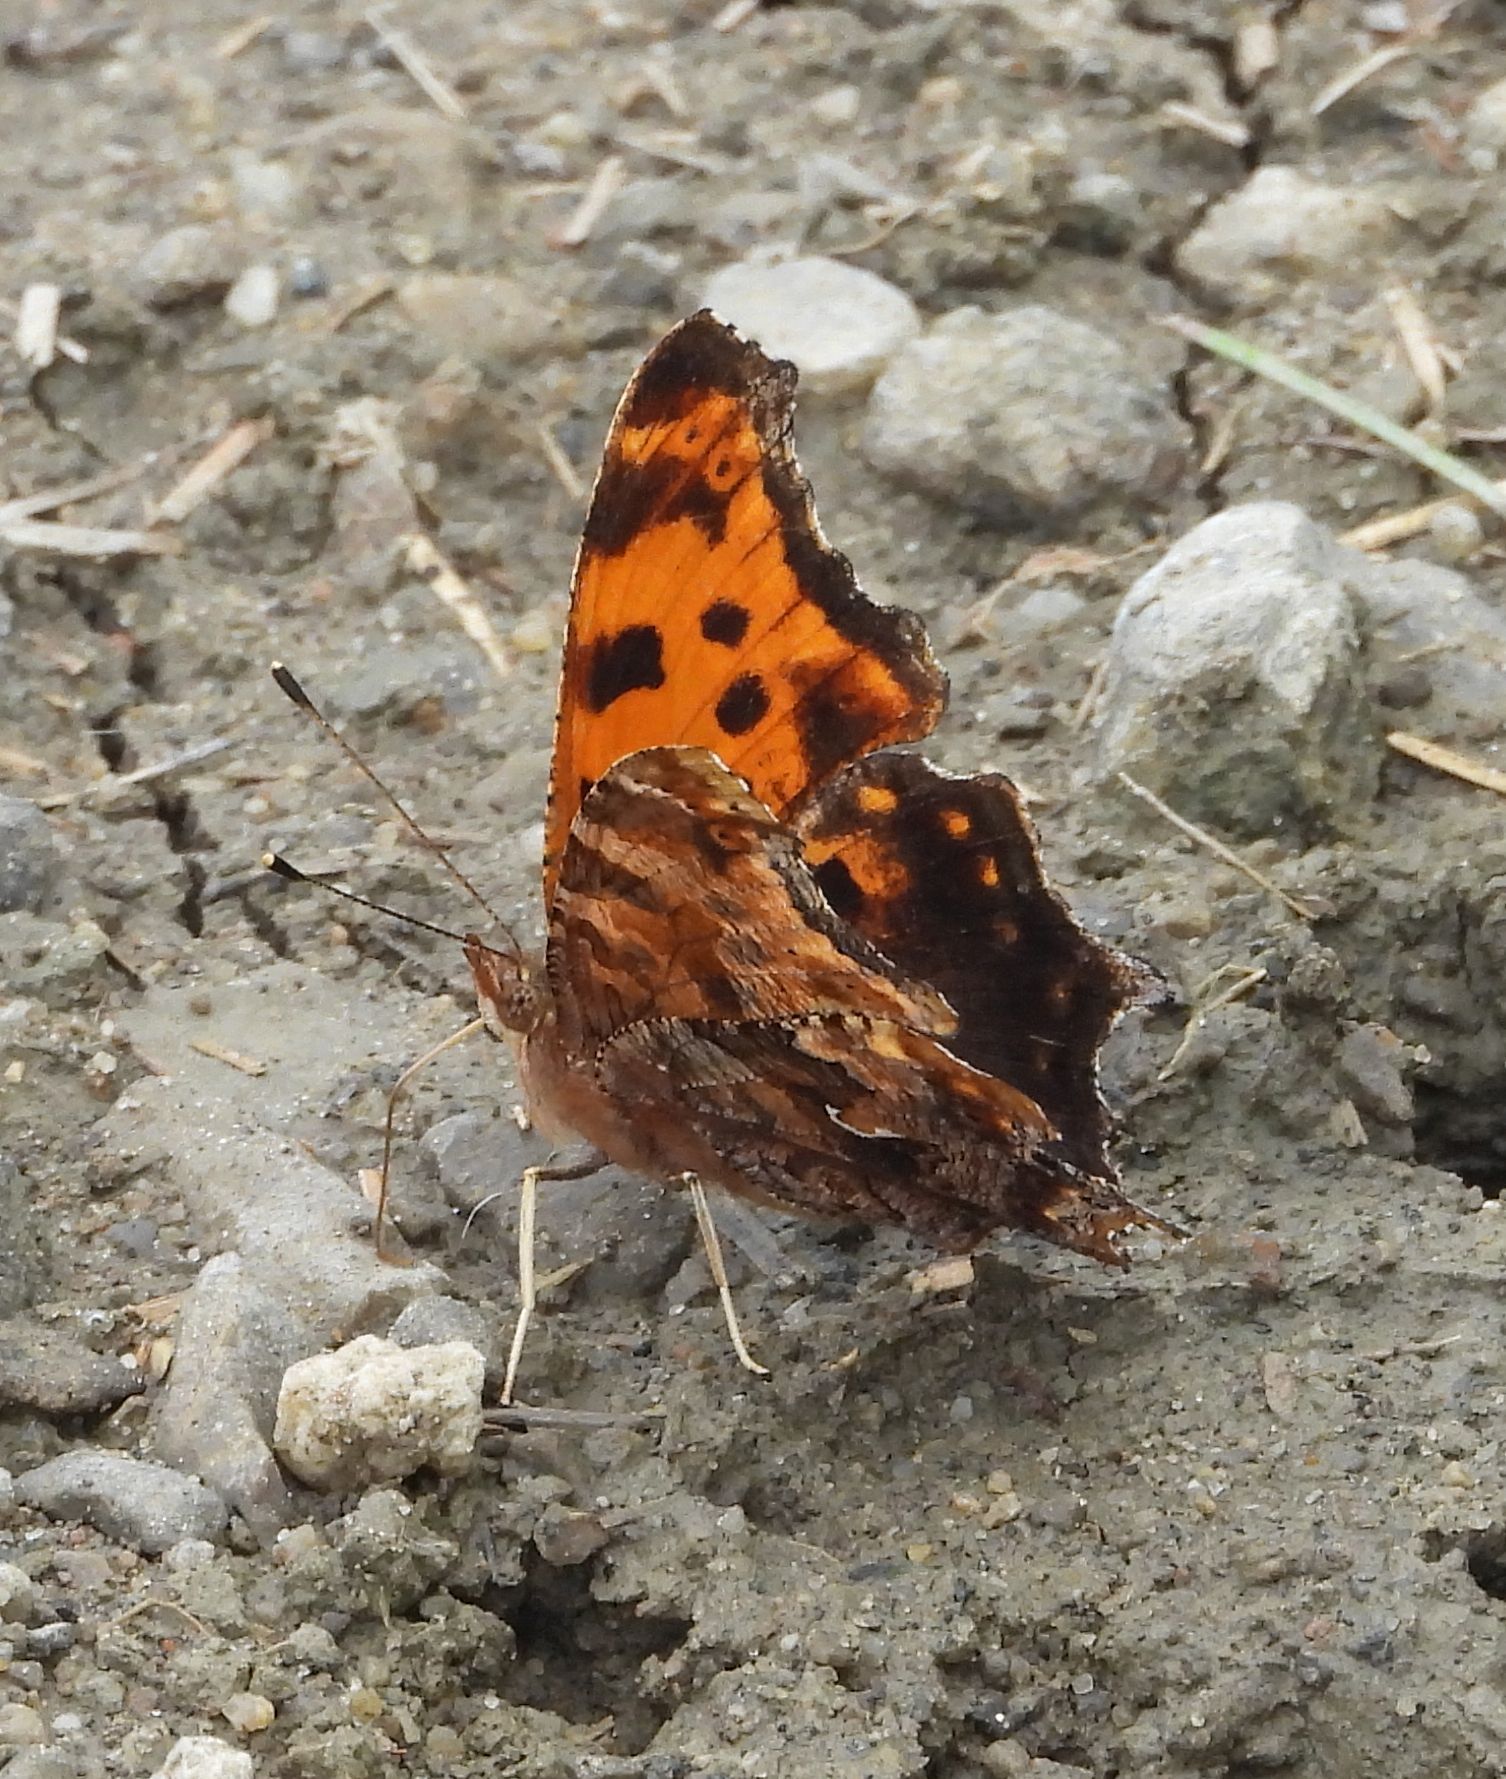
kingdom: Animalia
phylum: Arthropoda
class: Insecta
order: Lepidoptera
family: Nymphalidae
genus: Polygonia
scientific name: Polygonia comma
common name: Eastern comma
